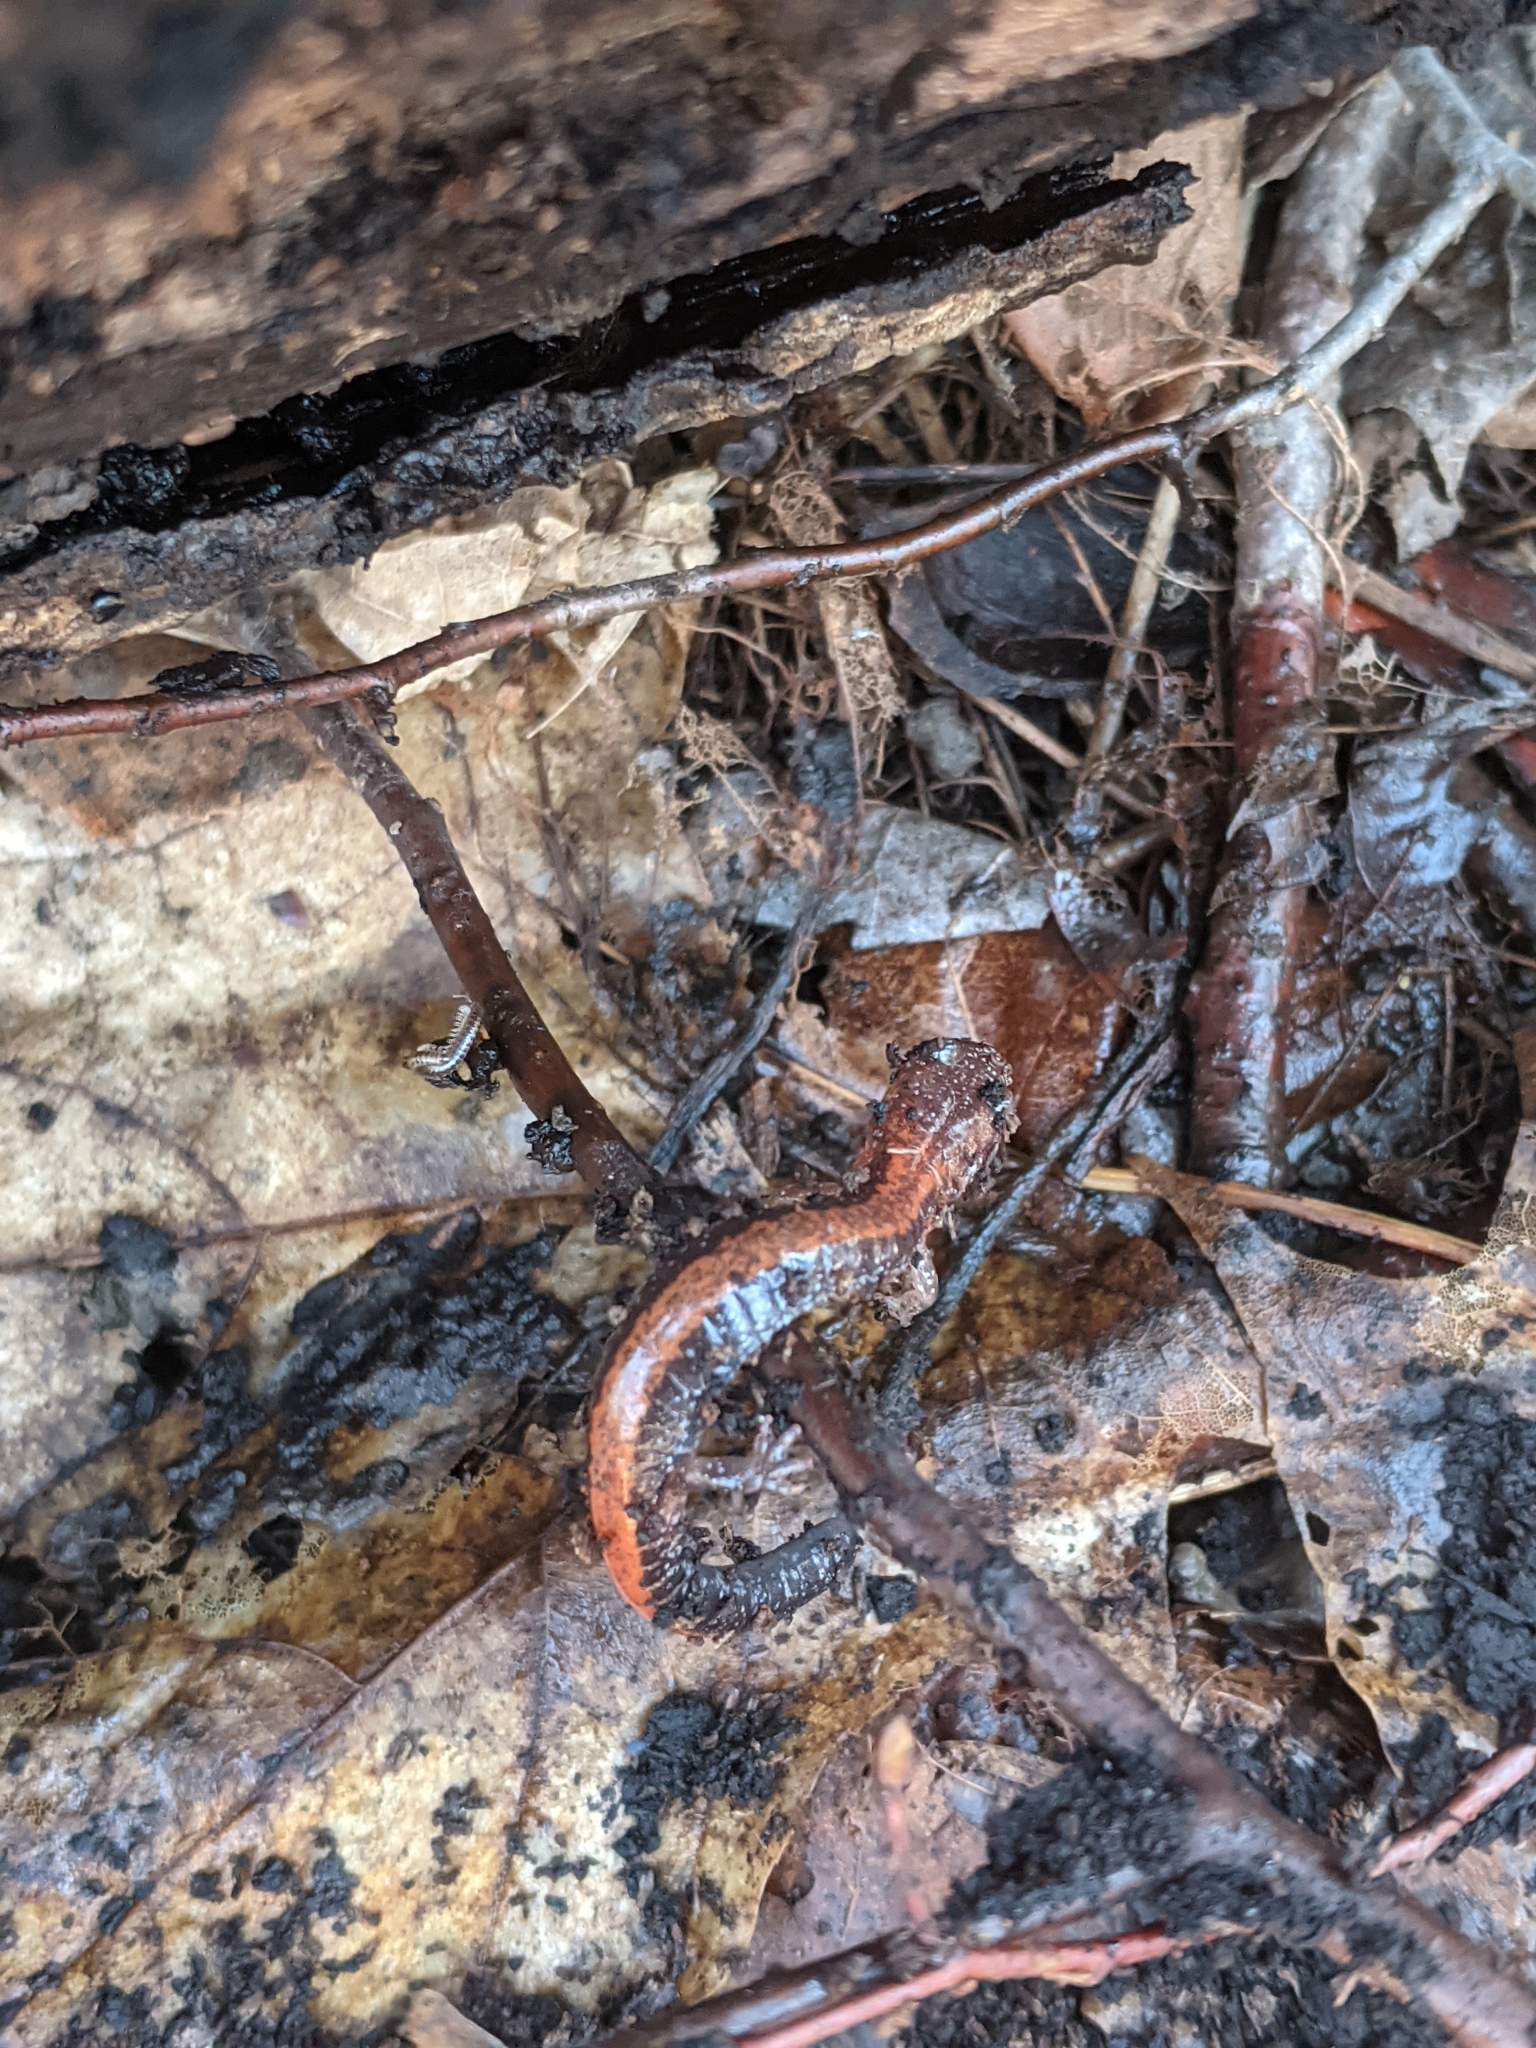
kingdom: Animalia
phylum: Chordata
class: Amphibia
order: Caudata
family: Plethodontidae
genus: Plethodon
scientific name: Plethodon cinereus
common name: Redback salamander
